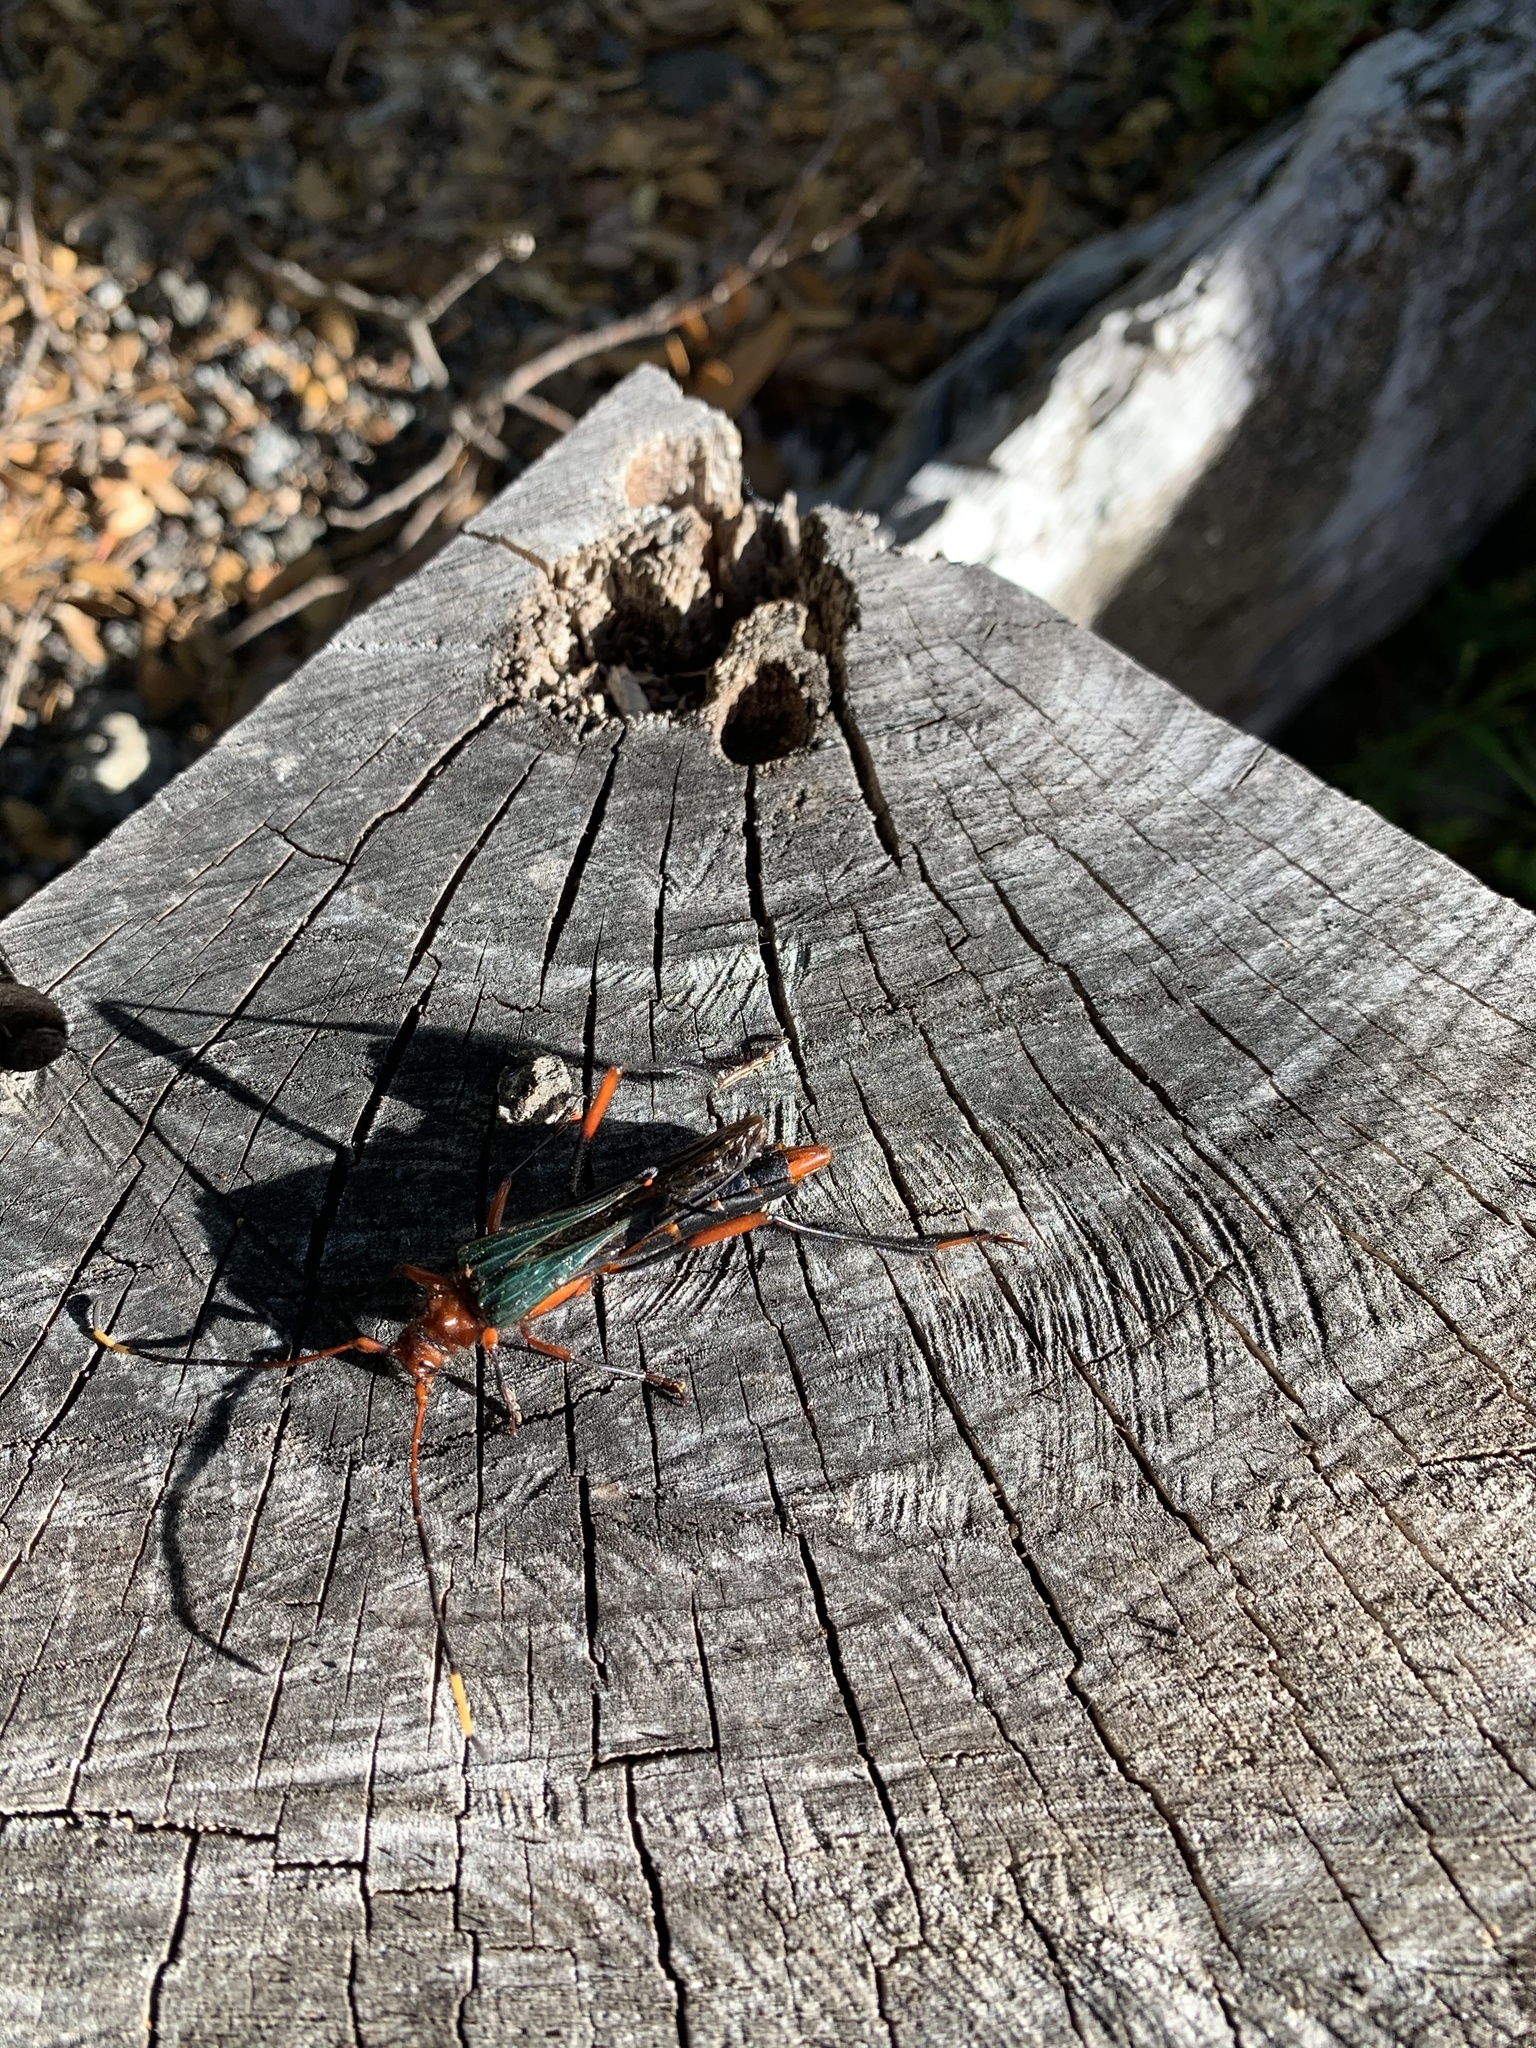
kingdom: Animalia
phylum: Arthropoda
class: Insecta
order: Coleoptera
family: Cerambycidae
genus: Planopus
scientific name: Planopus laniniensis
